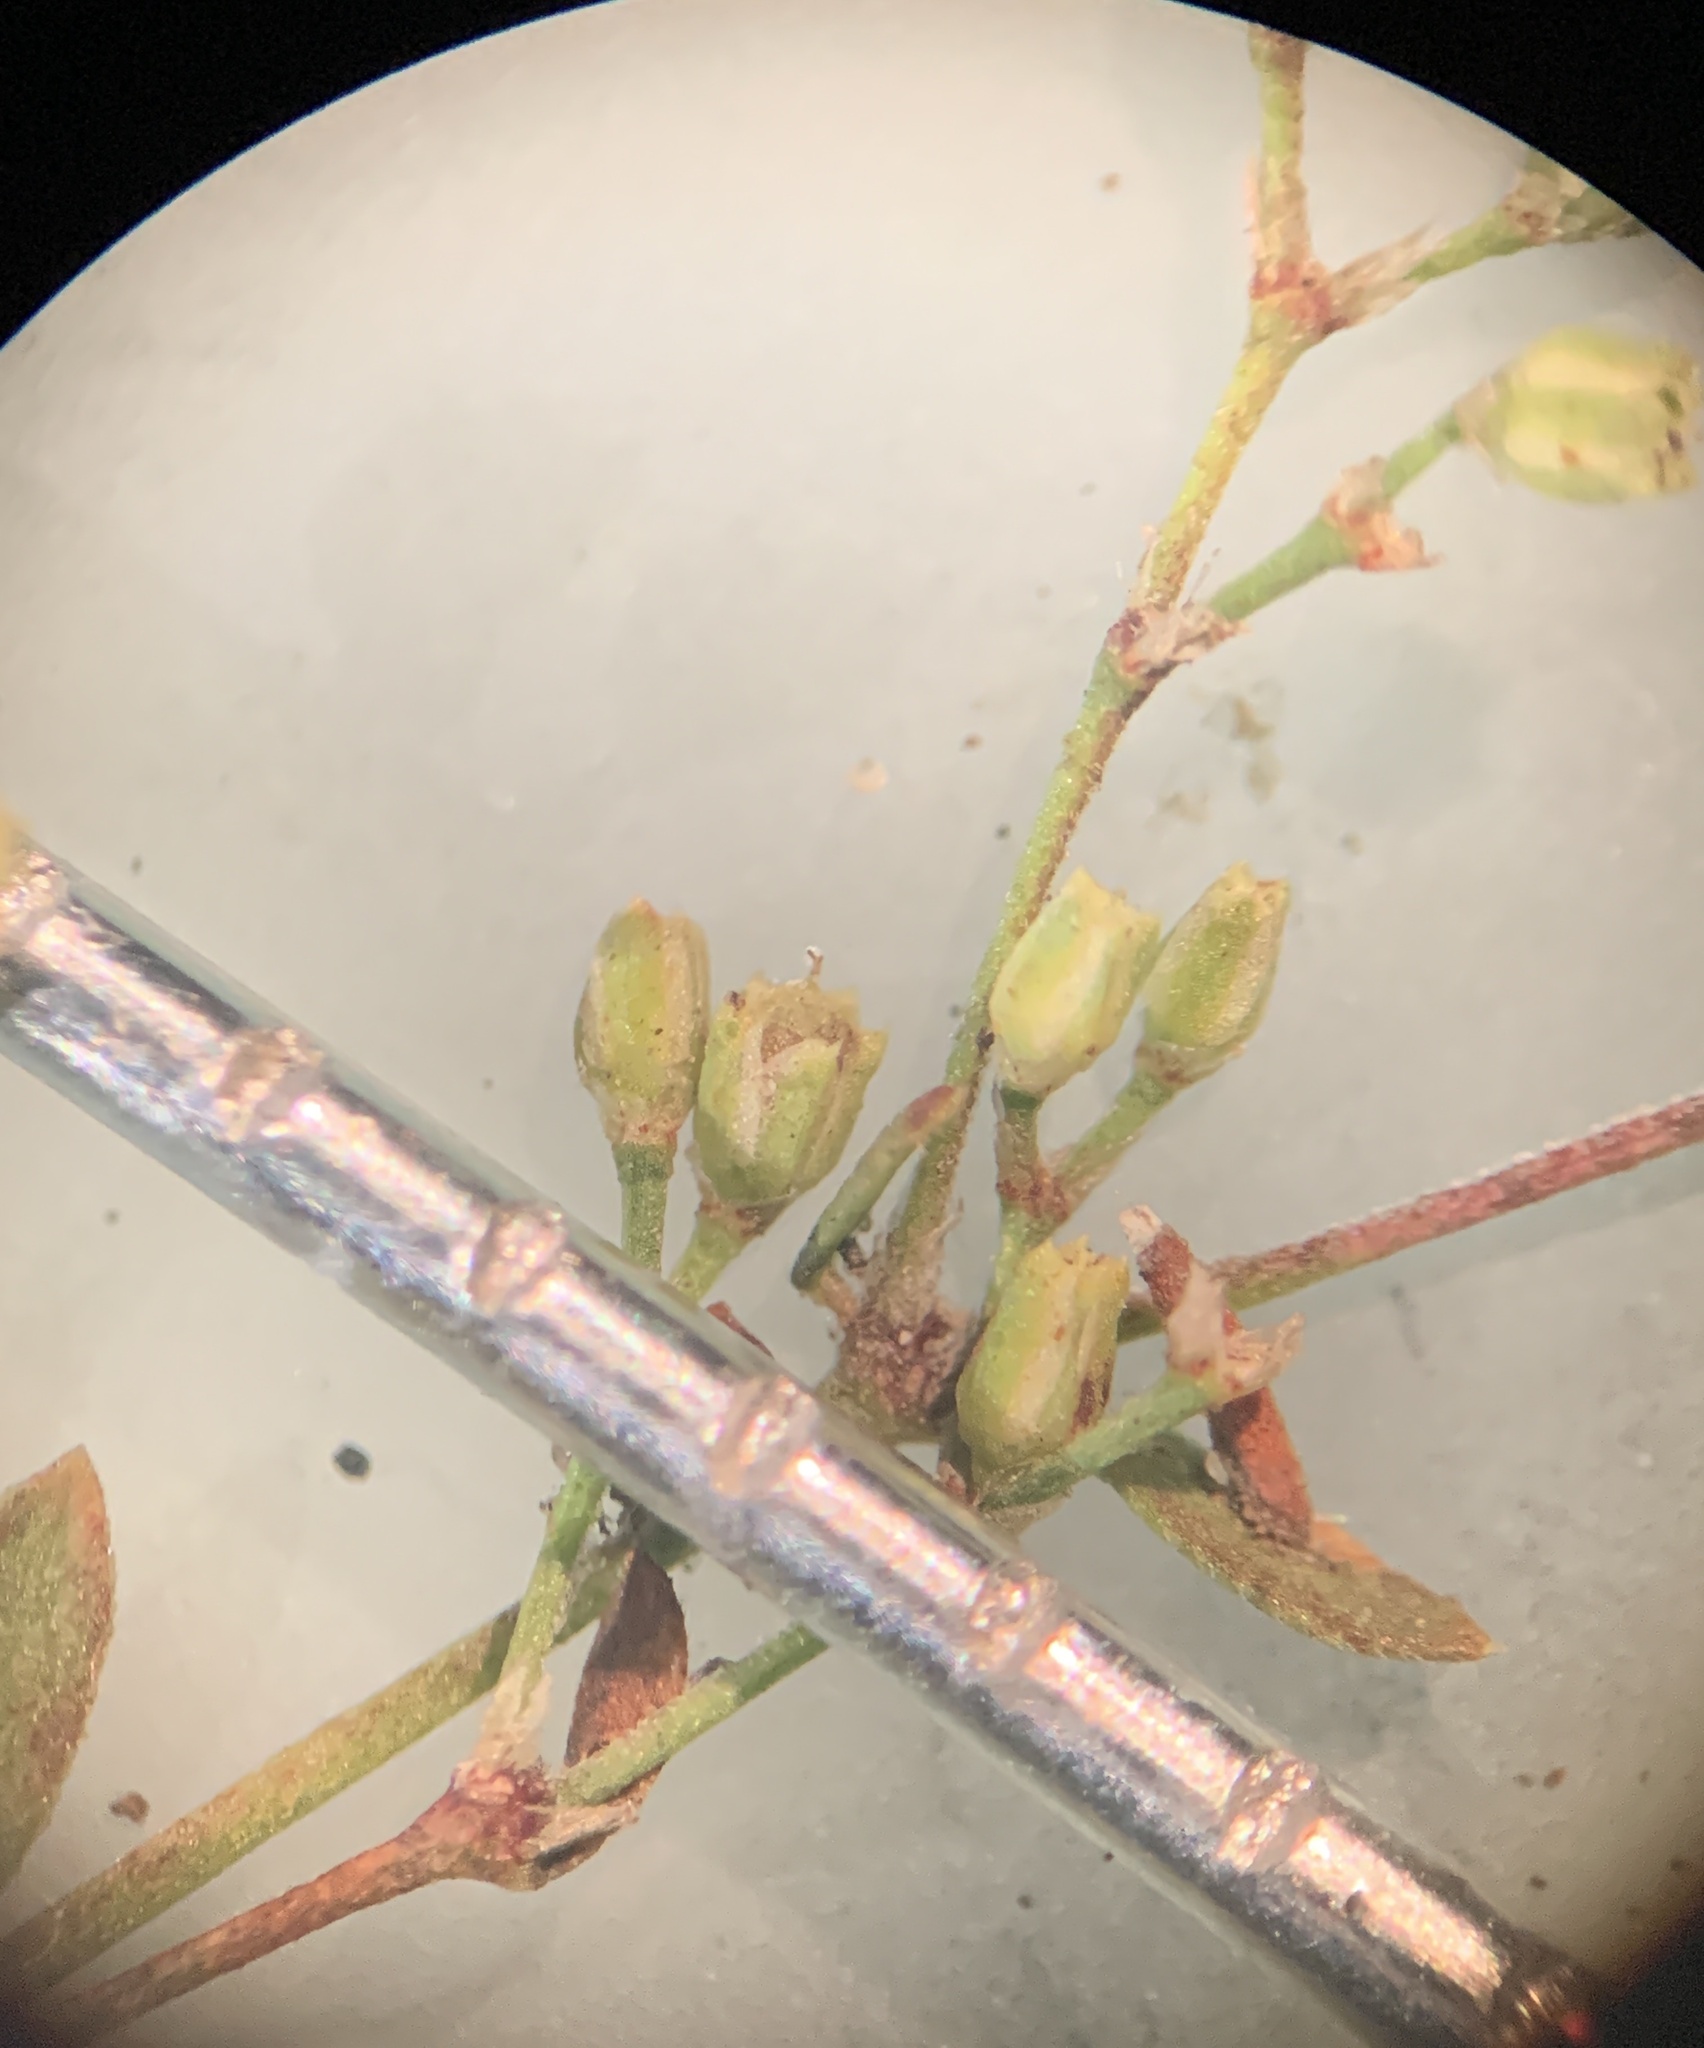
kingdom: Plantae
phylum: Tracheophyta
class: Magnoliopsida
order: Caryophyllales
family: Caryophyllaceae
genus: Paronychia
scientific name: Paronychia baldwinii
